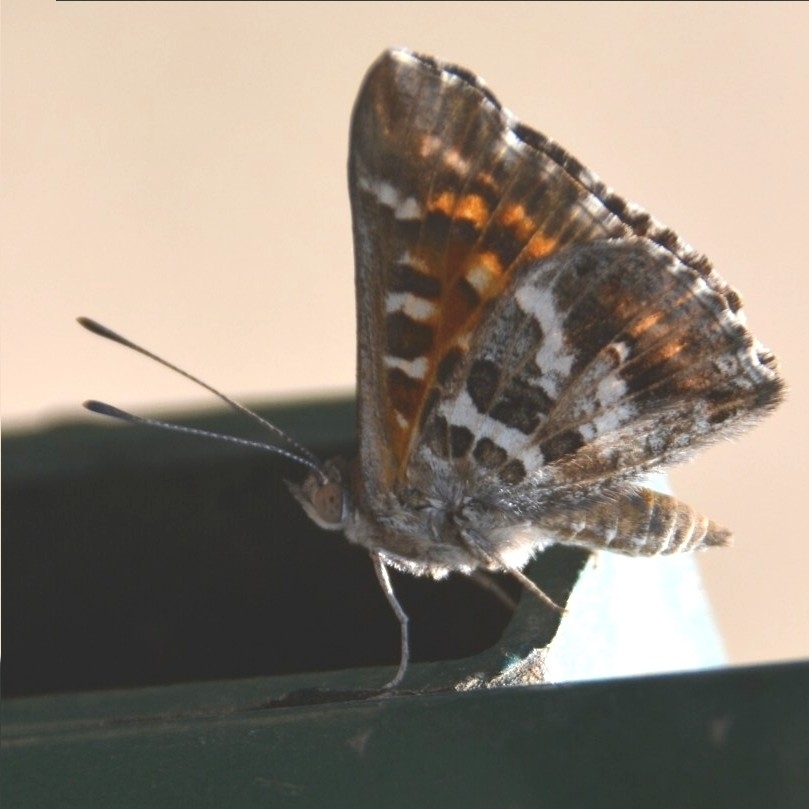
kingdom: Animalia
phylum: Arthropoda
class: Insecta
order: Lepidoptera
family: Lycaenidae
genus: Aricoris
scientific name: Aricoris chilensis
